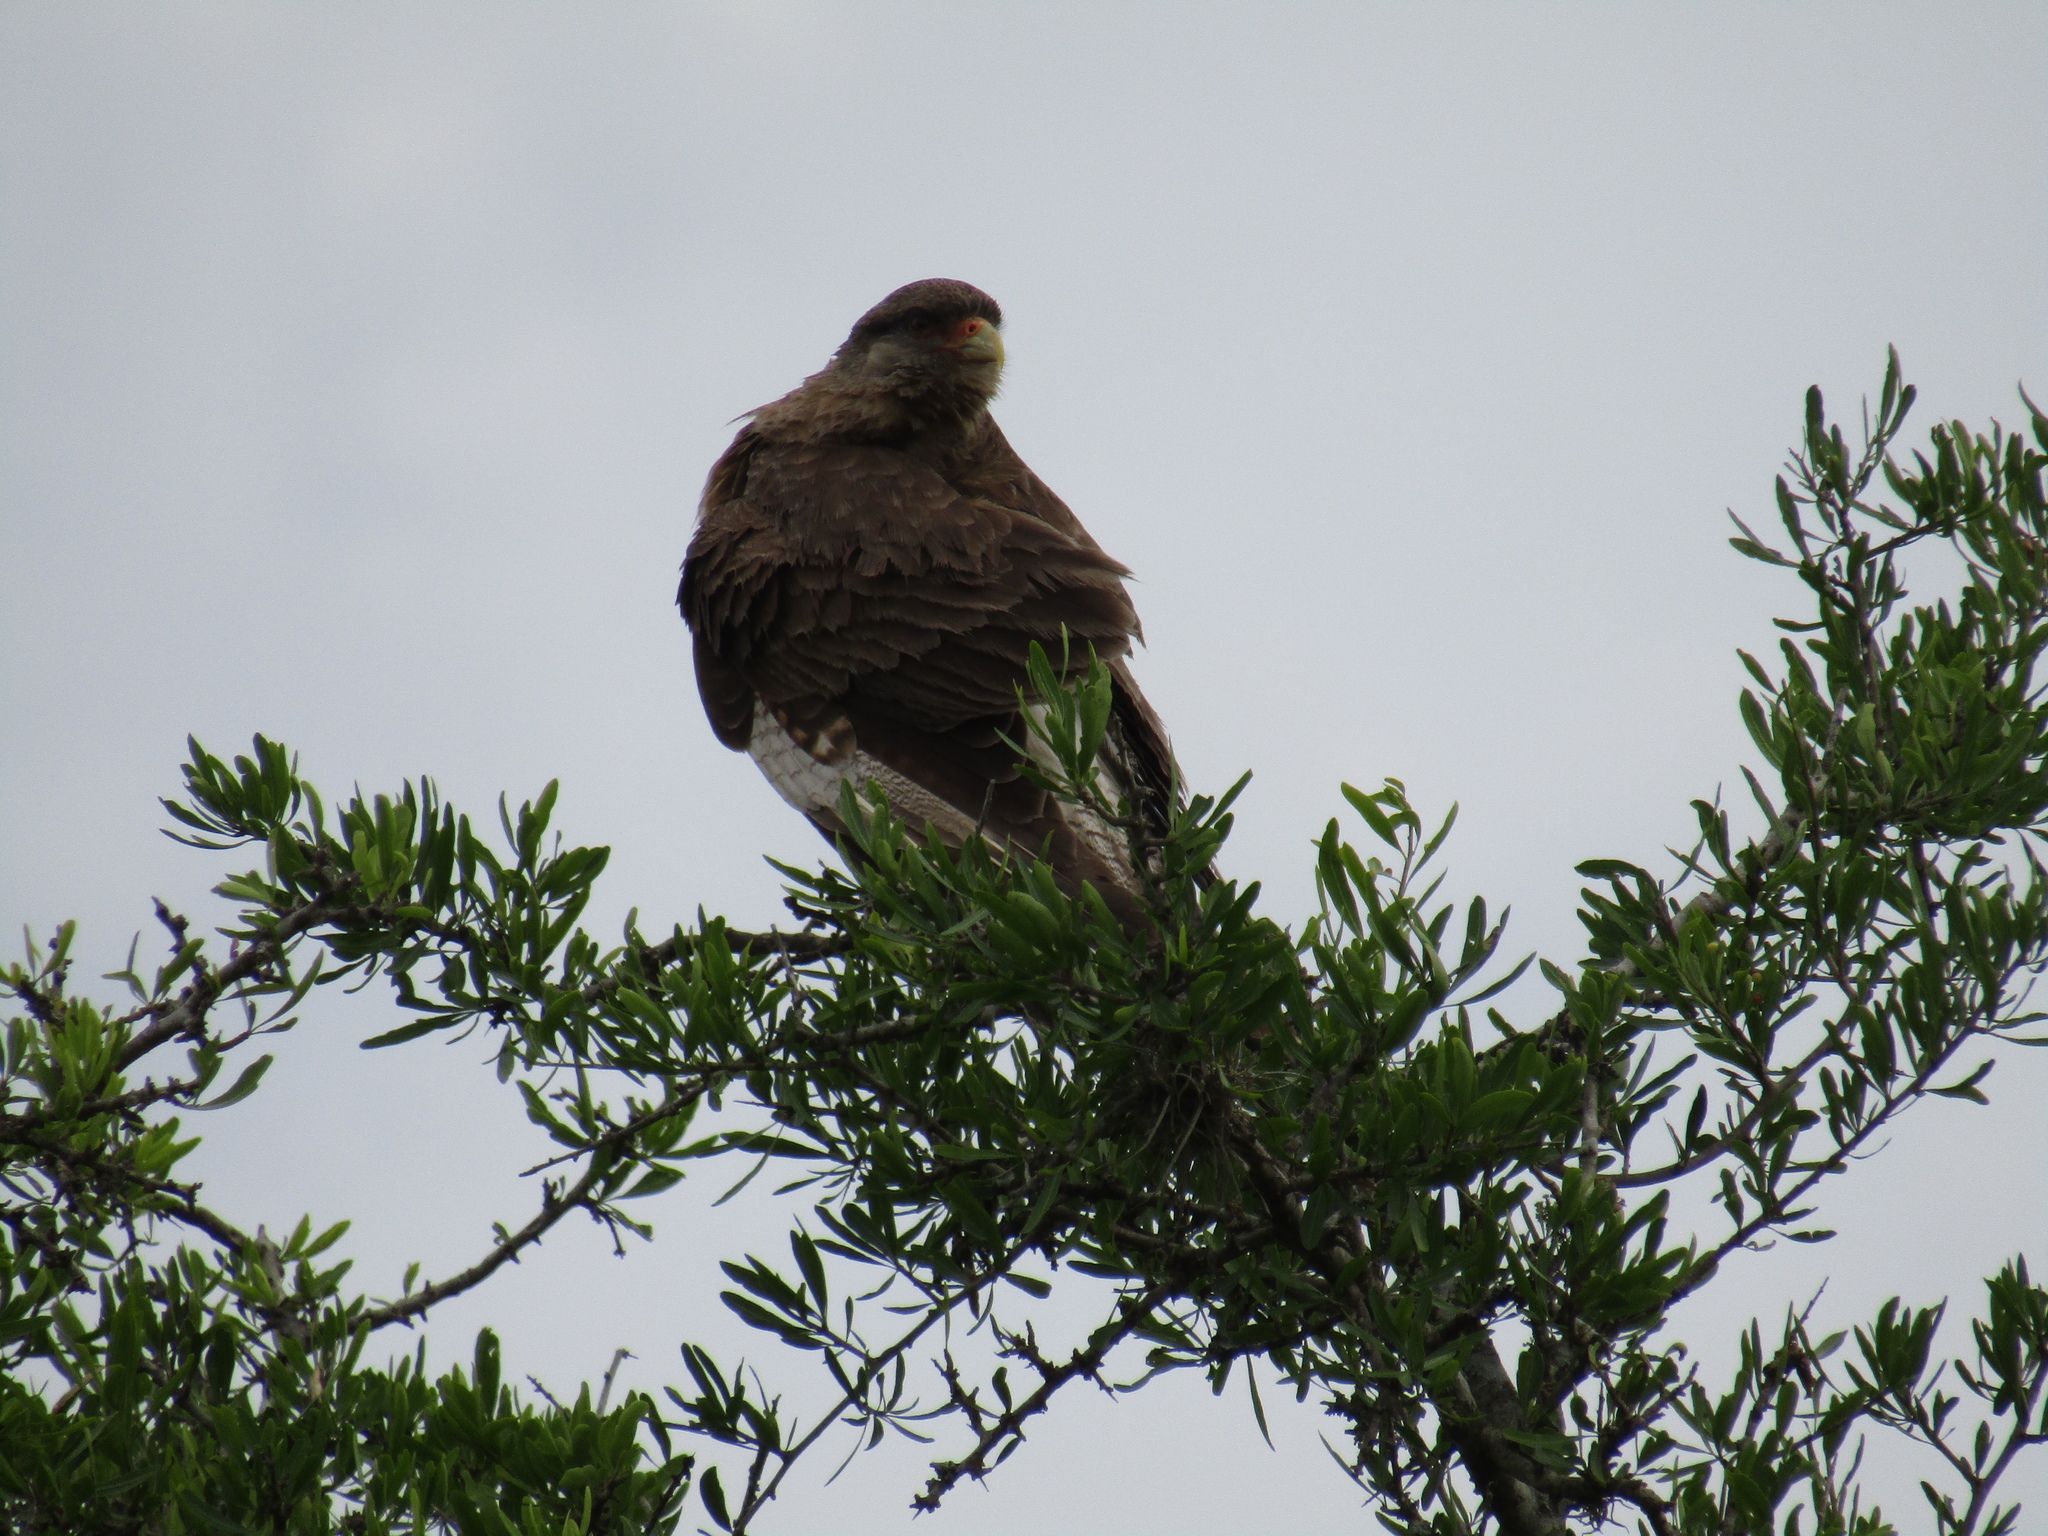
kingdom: Animalia
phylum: Chordata
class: Aves
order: Falconiformes
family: Falconidae
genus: Daptrius
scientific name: Daptrius
